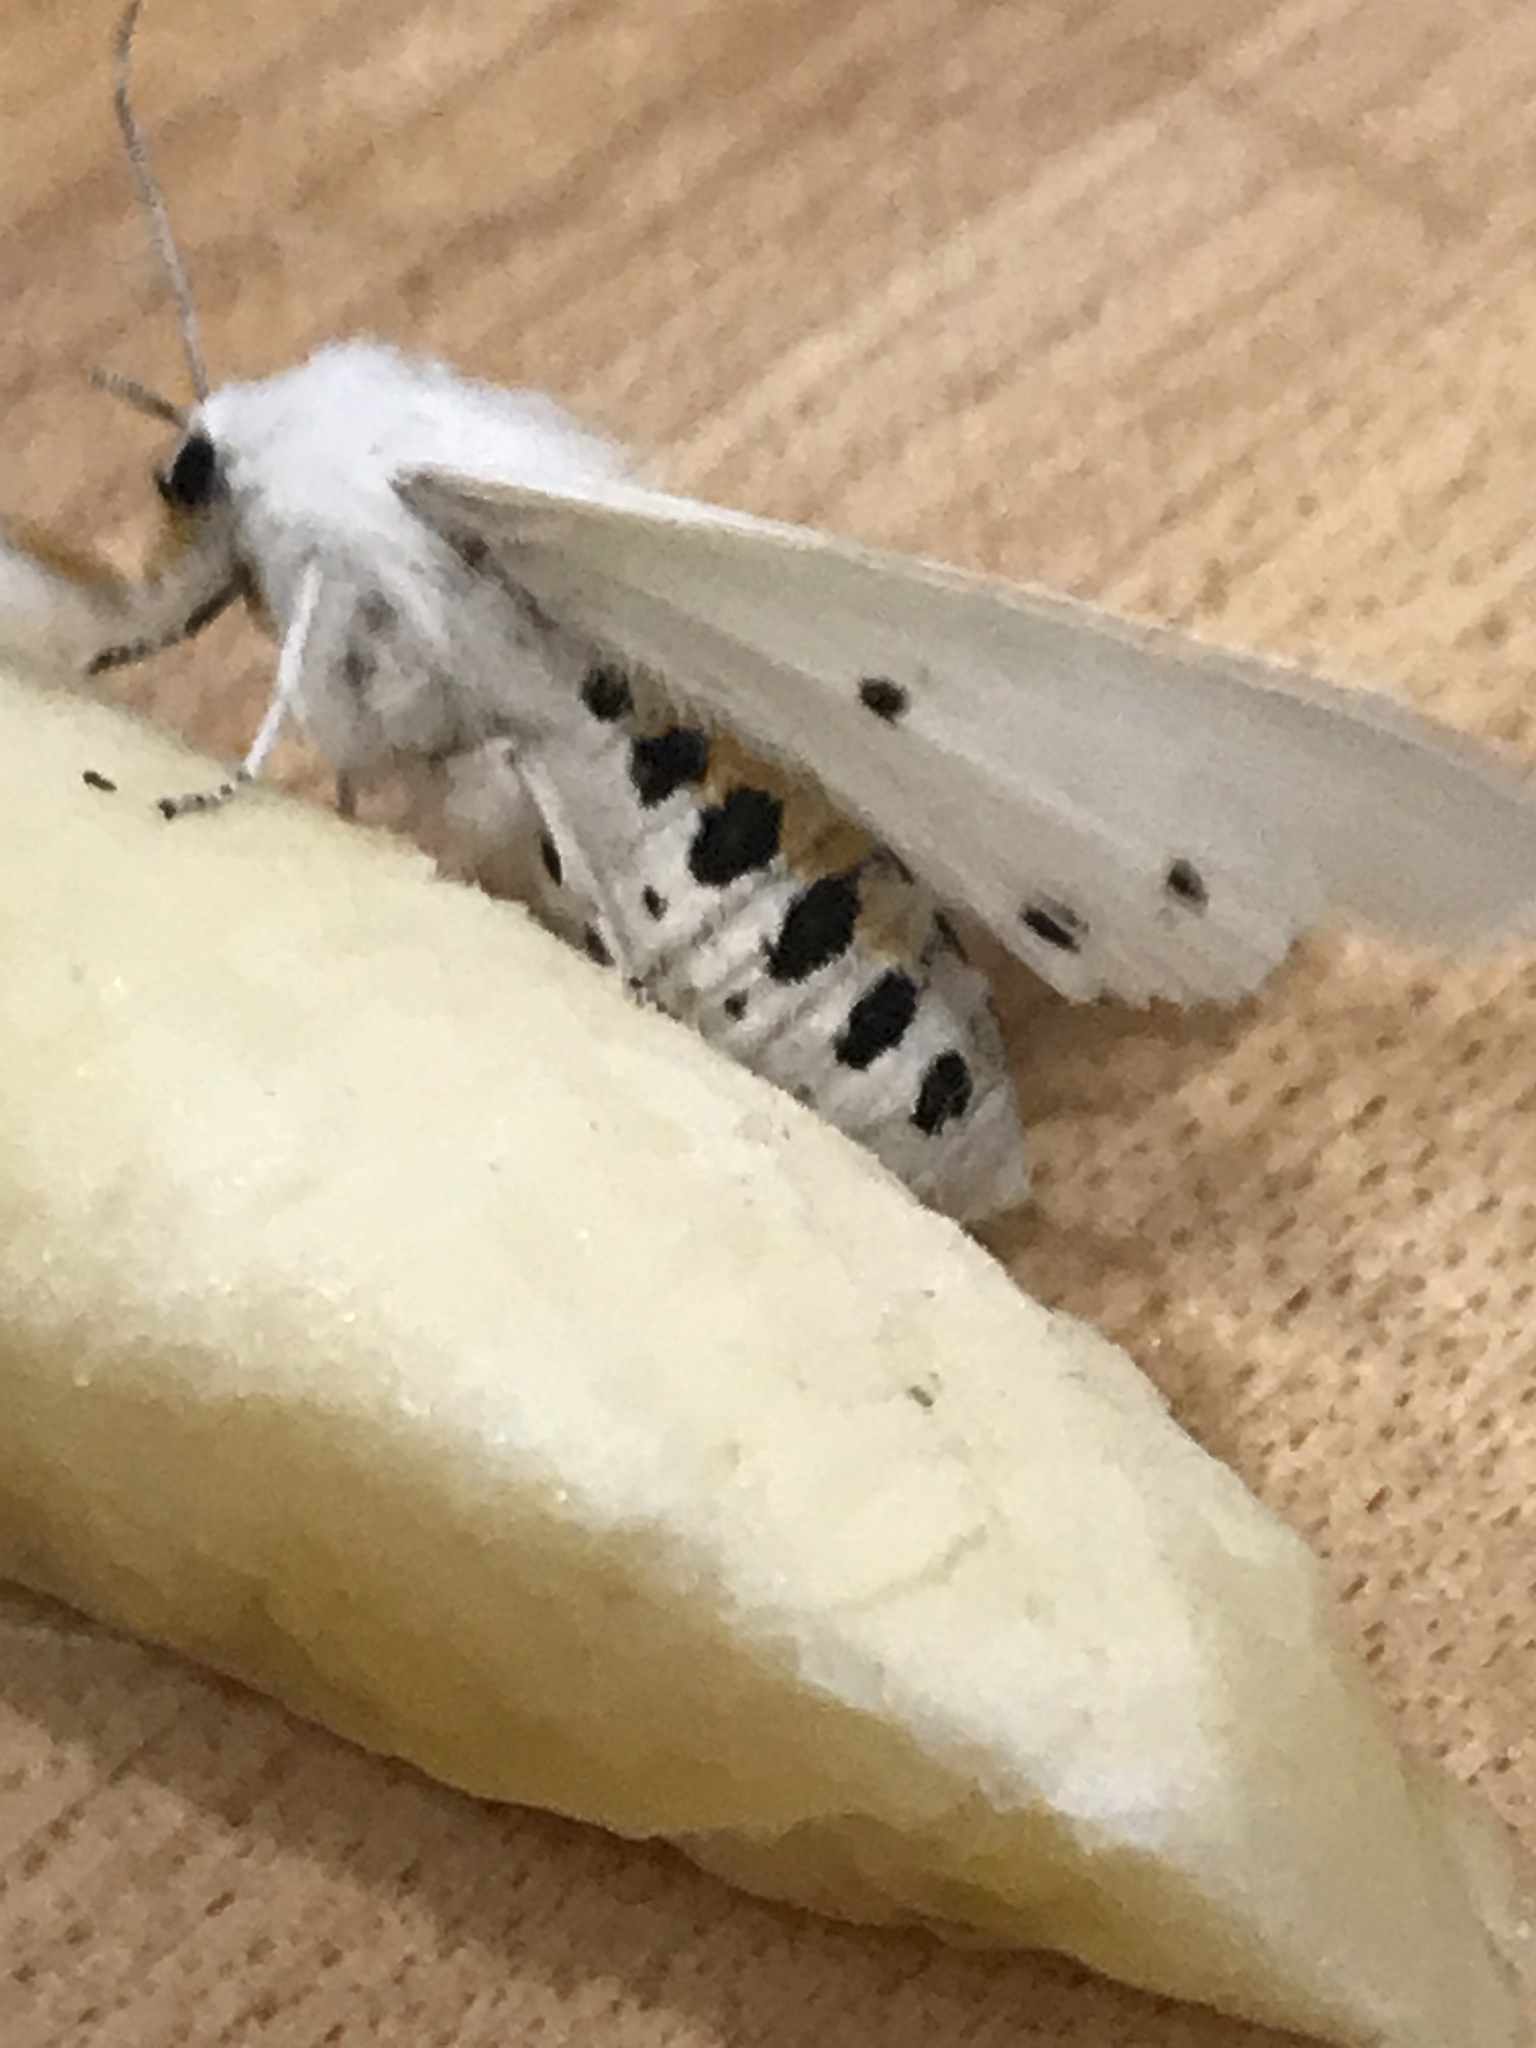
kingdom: Animalia
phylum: Arthropoda
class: Insecta
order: Lepidoptera
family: Erebidae
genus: Spilosoma
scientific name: Spilosoma virginica
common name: Virginia tiger moth
